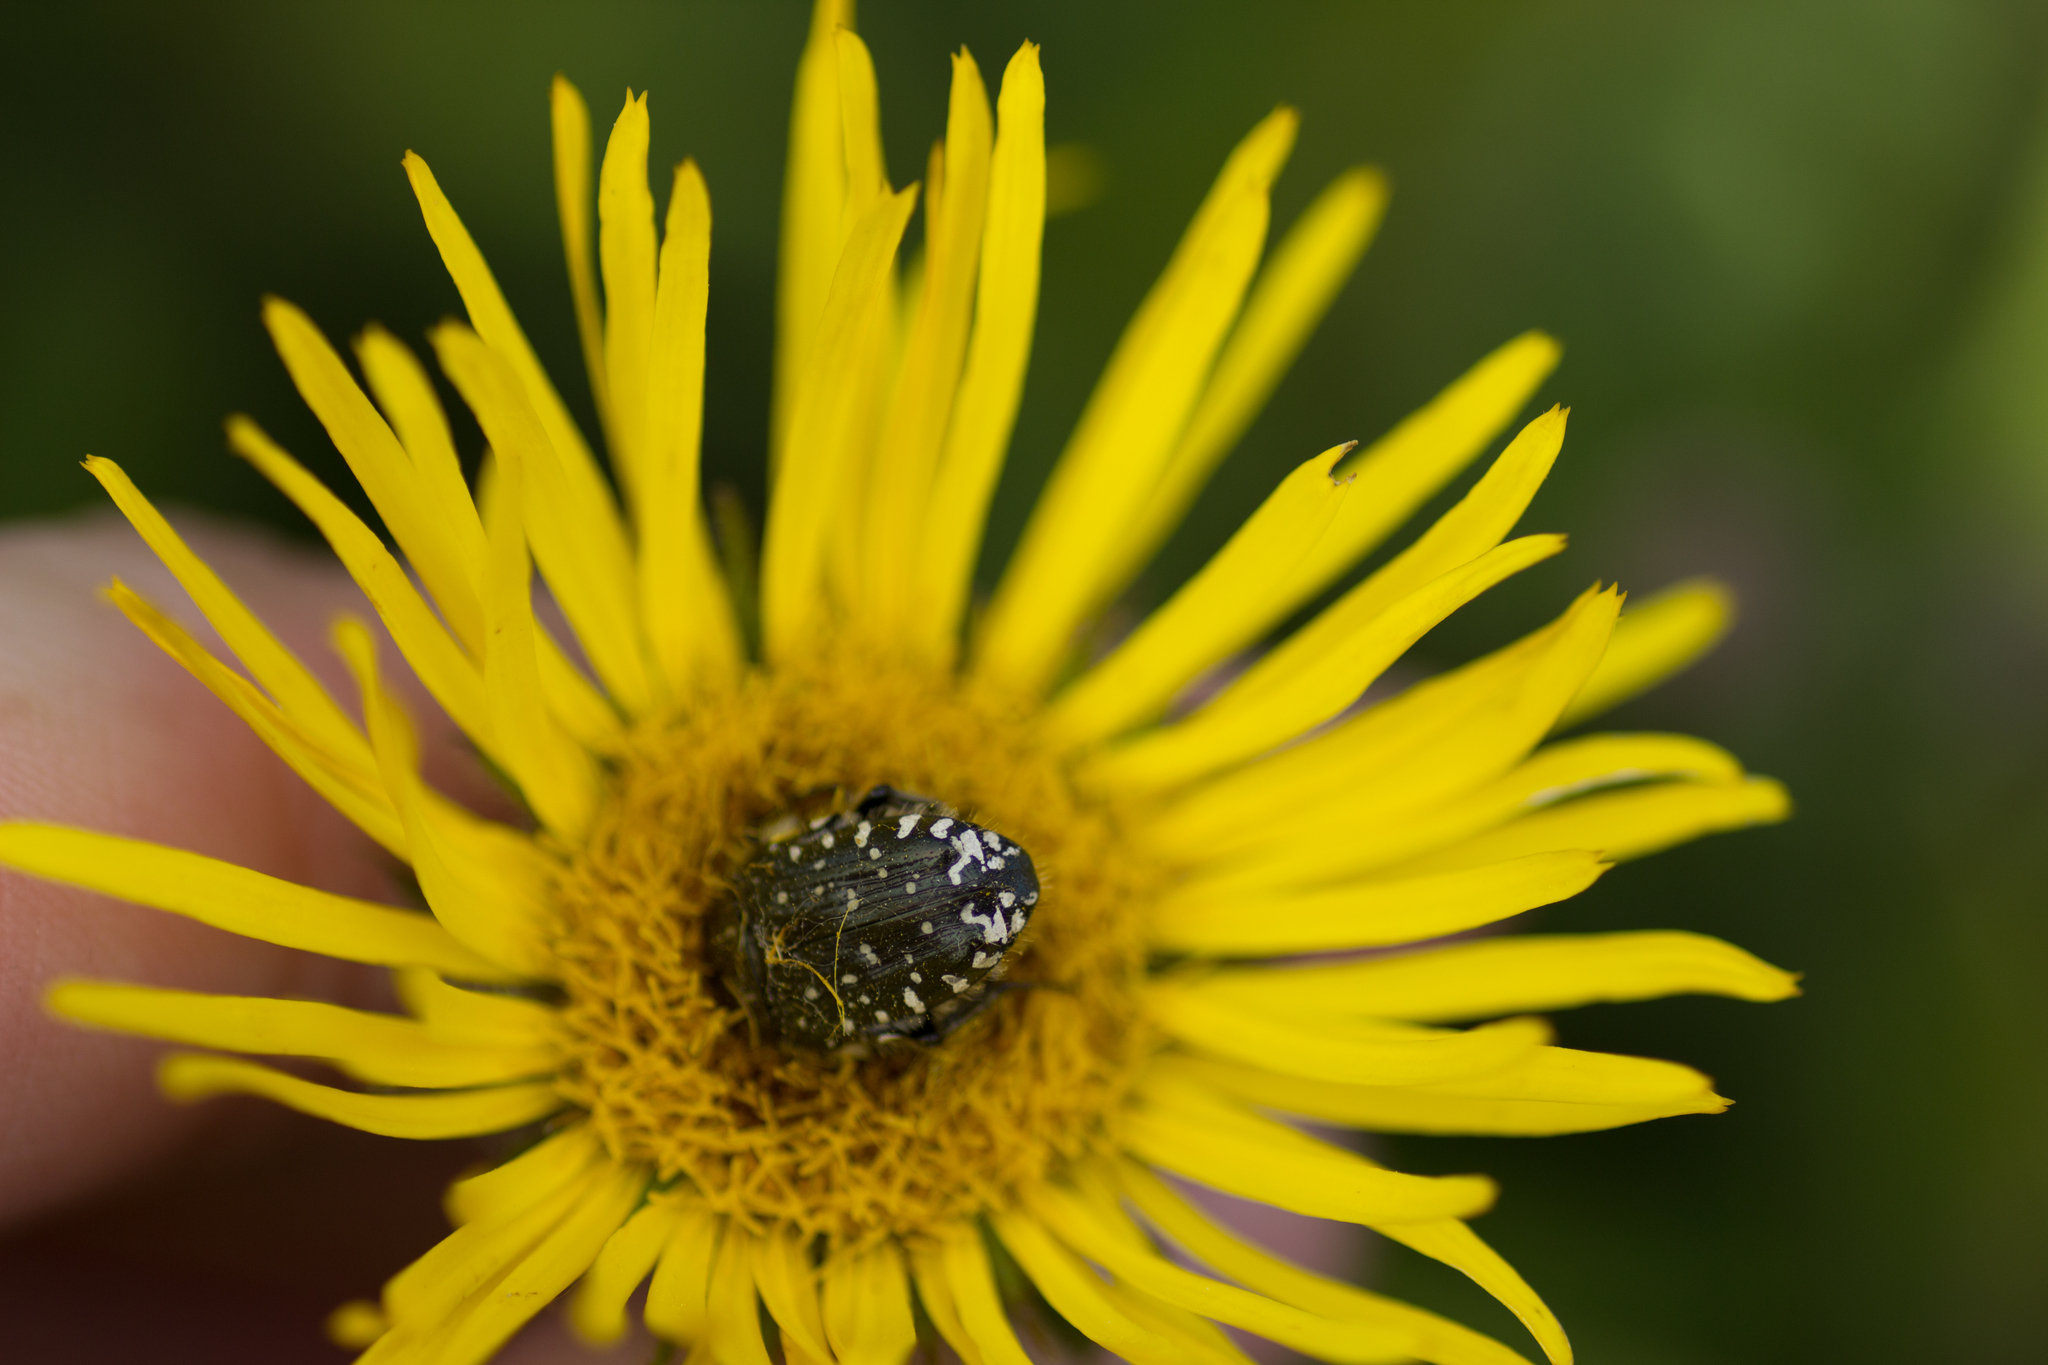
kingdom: Animalia
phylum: Arthropoda
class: Insecta
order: Coleoptera
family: Scarabaeidae
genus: Oxythyrea
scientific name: Oxythyrea funesta
